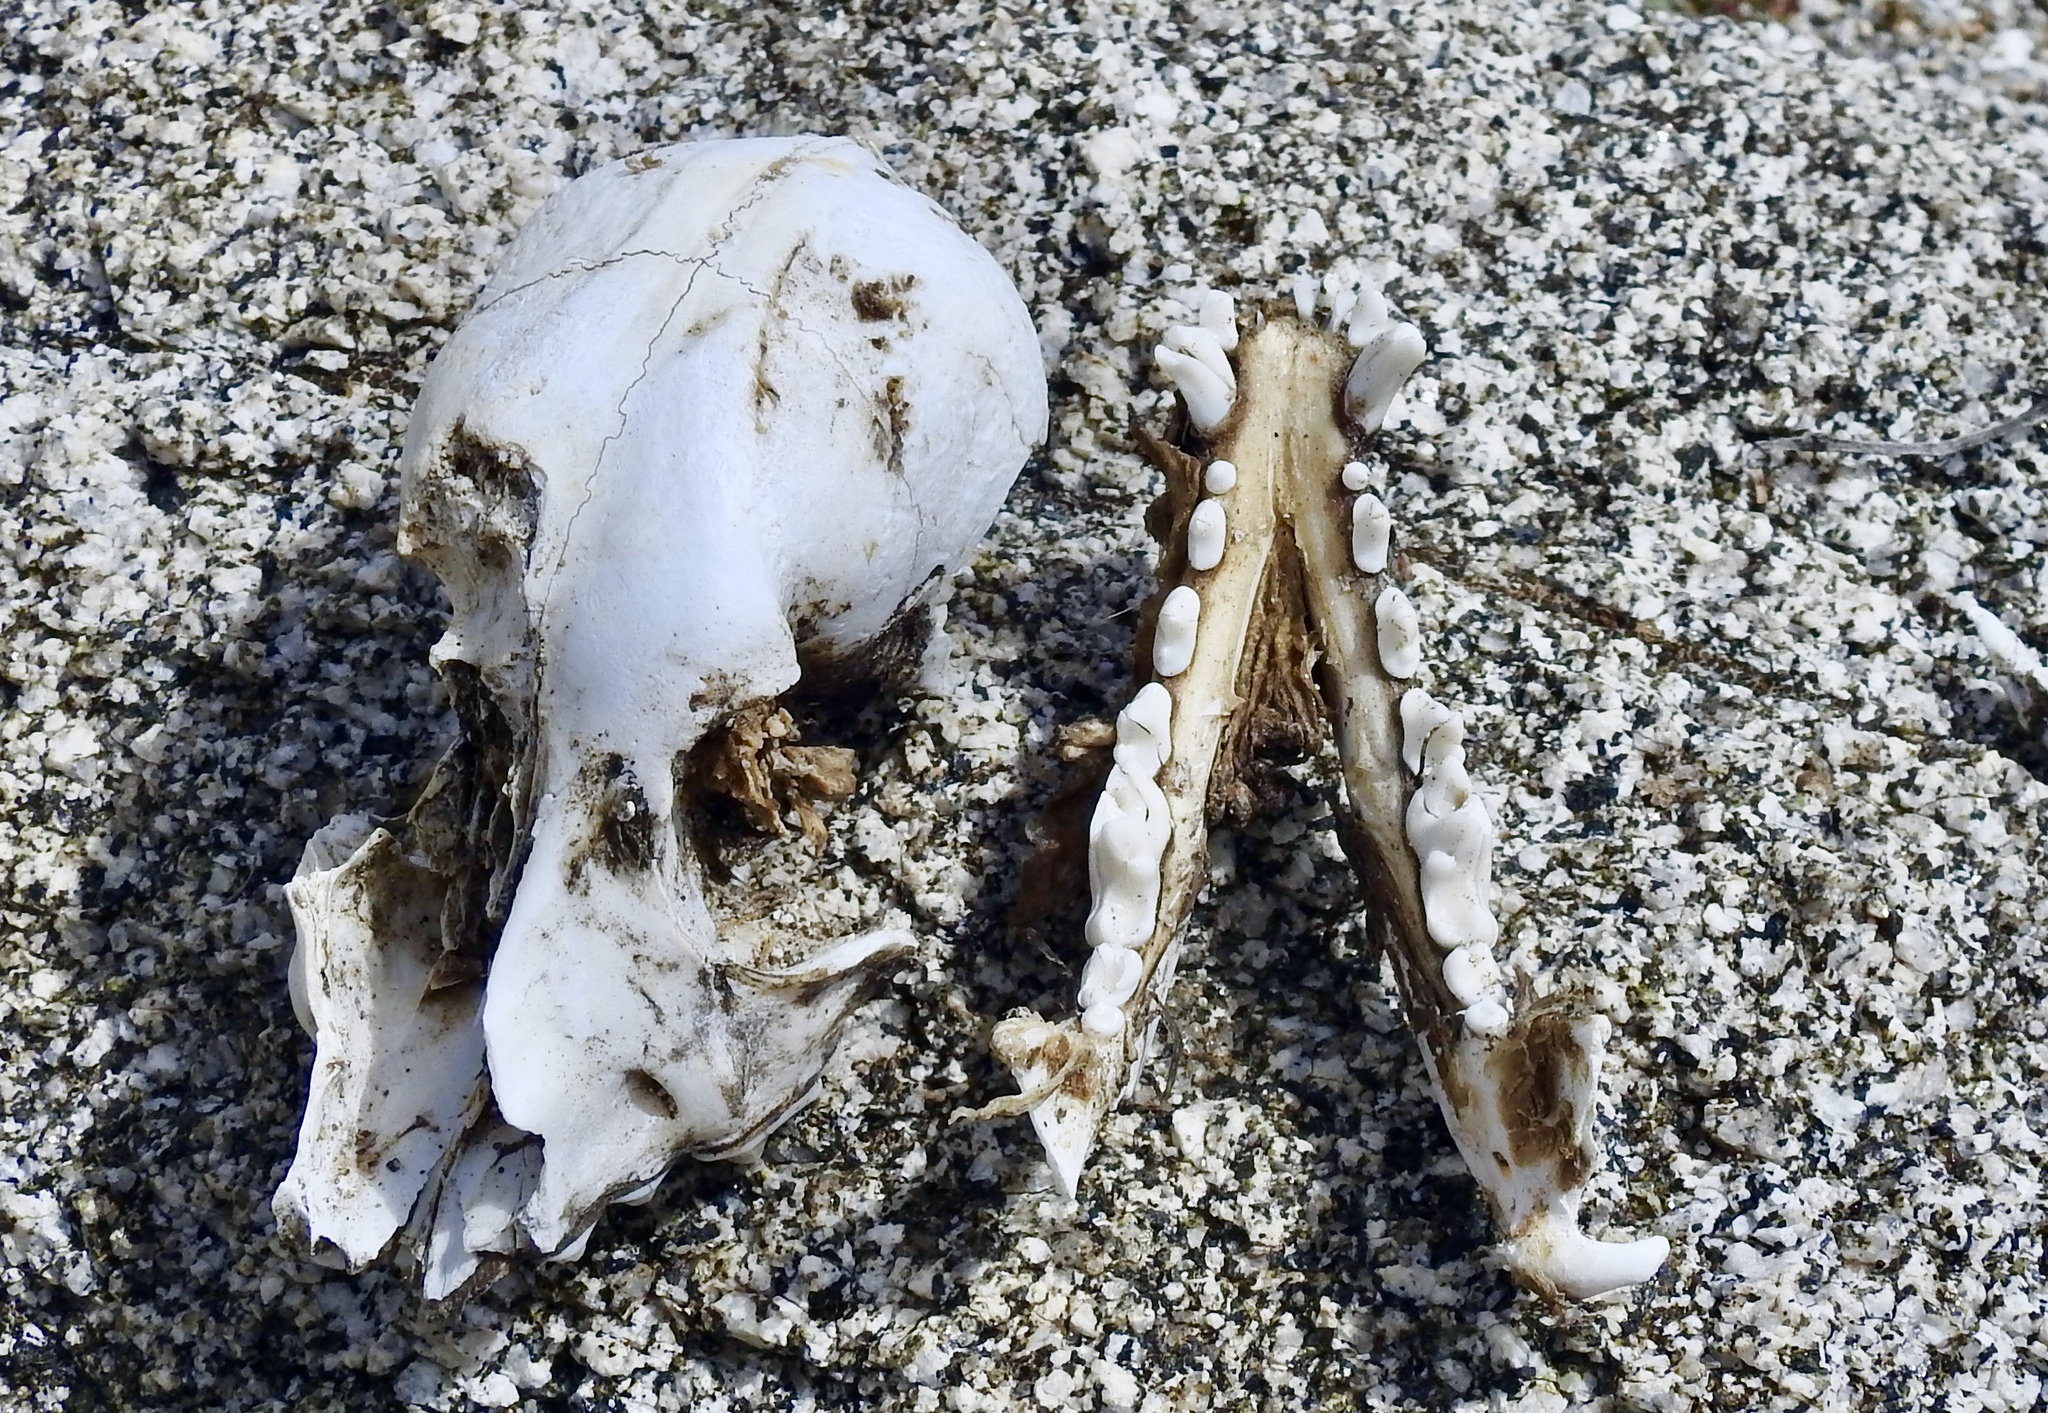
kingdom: Animalia
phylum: Chordata
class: Mammalia
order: Carnivora
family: Canidae
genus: Canis
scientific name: Canis lupus
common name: Gray wolf
